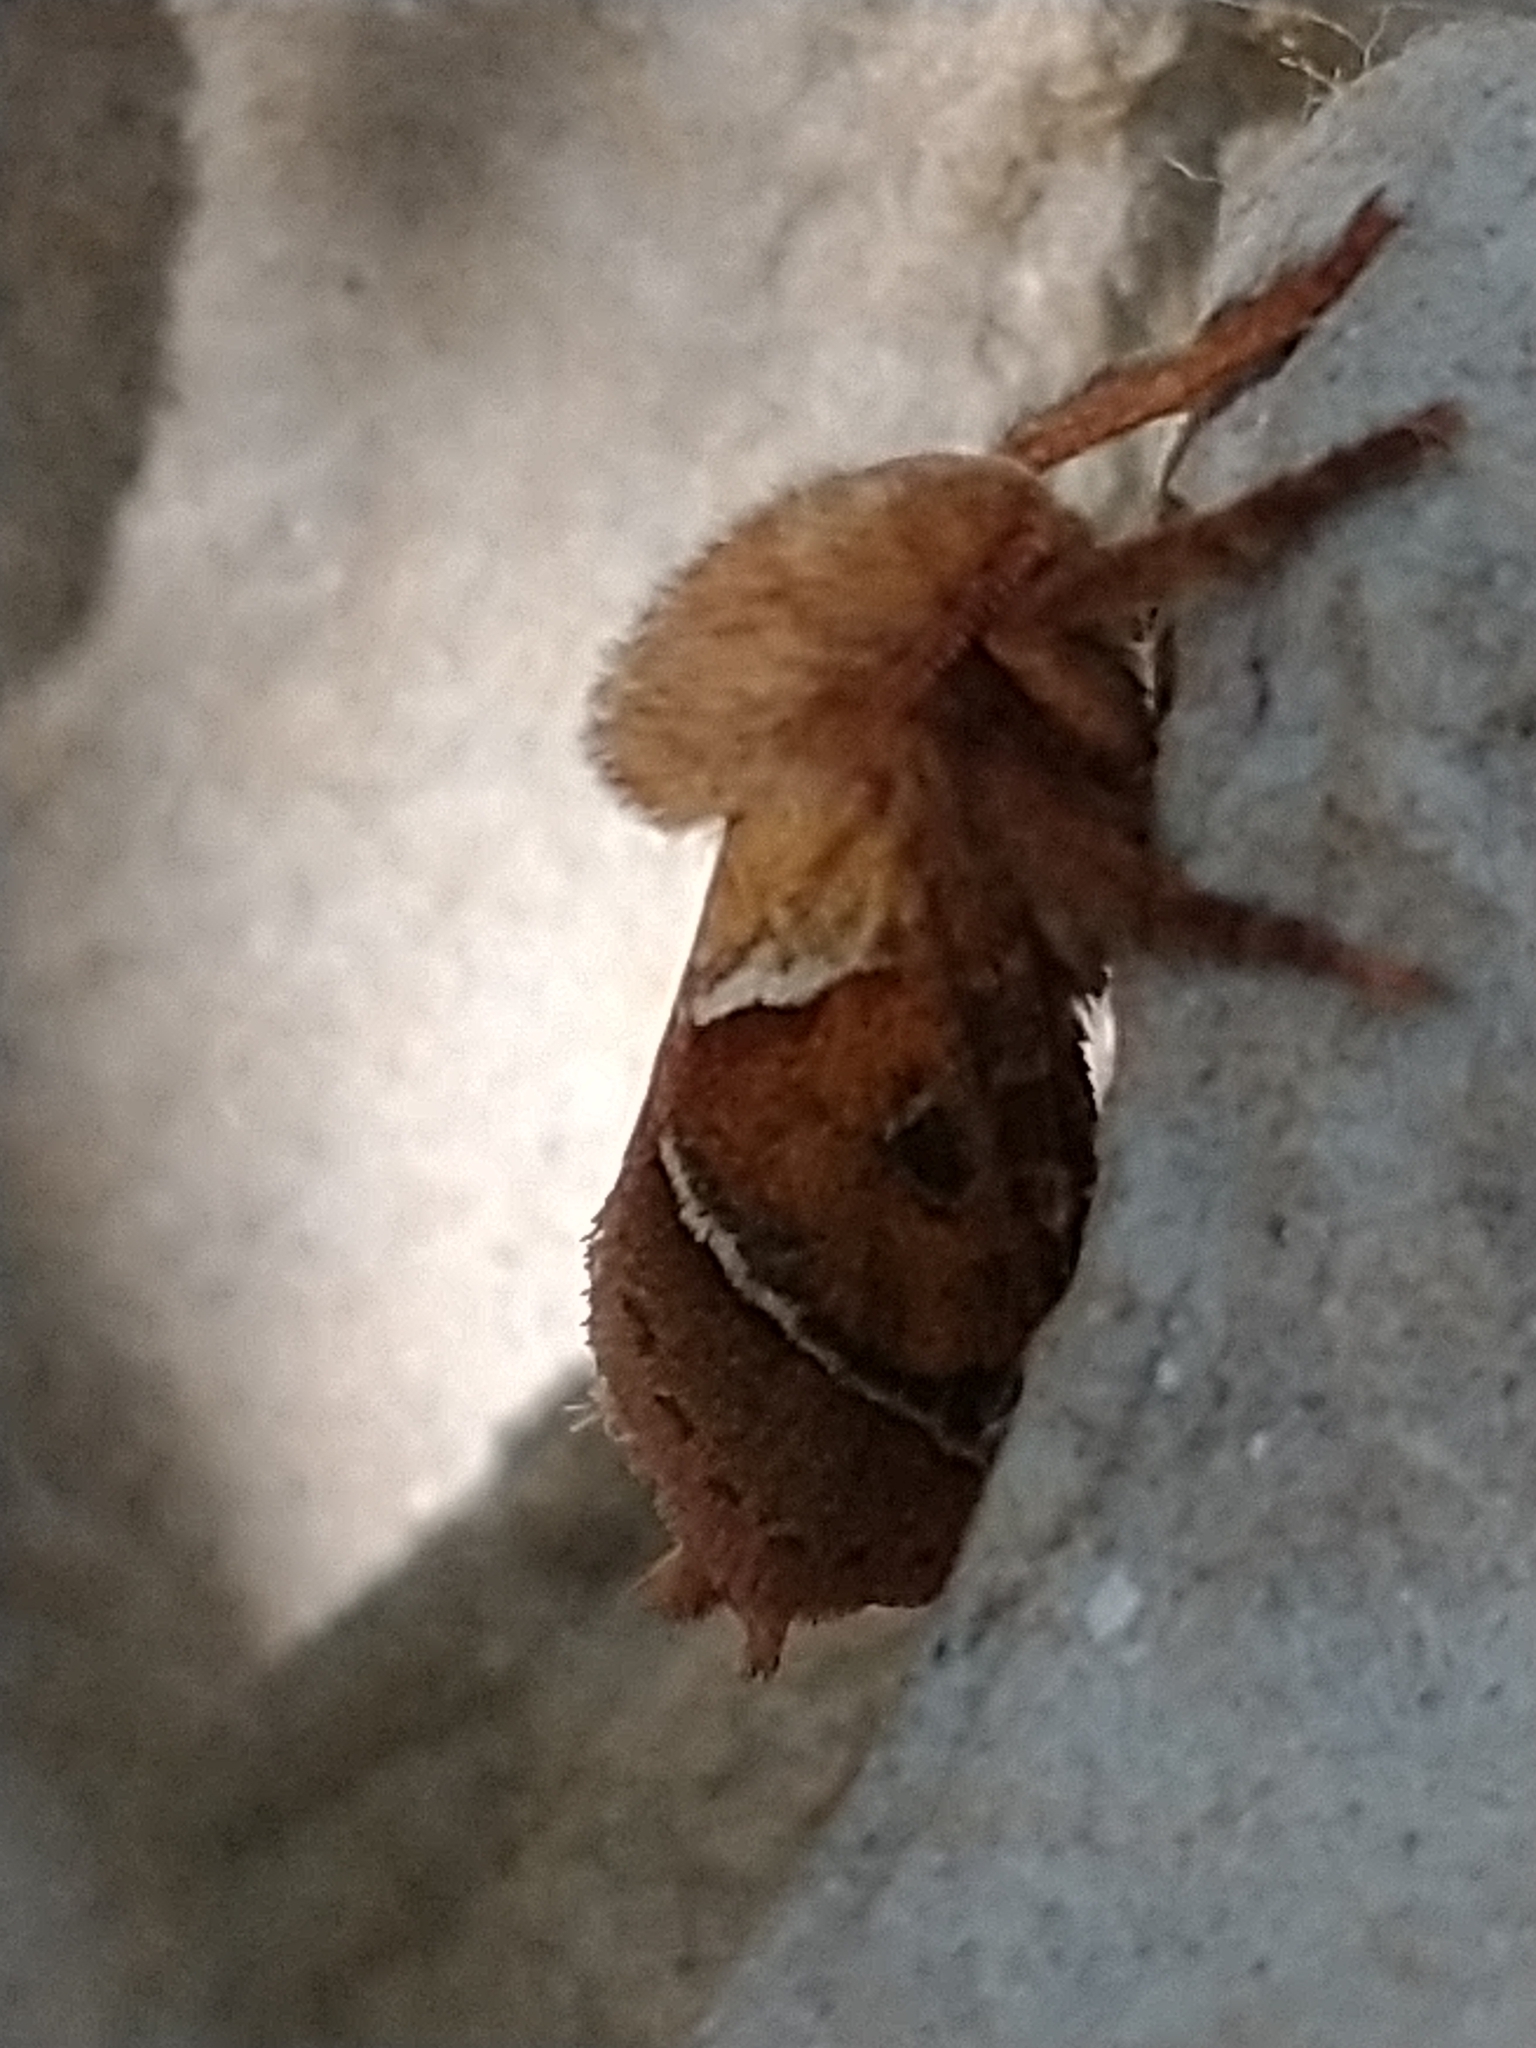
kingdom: Animalia
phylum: Arthropoda
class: Insecta
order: Lepidoptera
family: Hepialidae
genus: Triodia
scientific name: Triodia sylvina
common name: Orange swift
